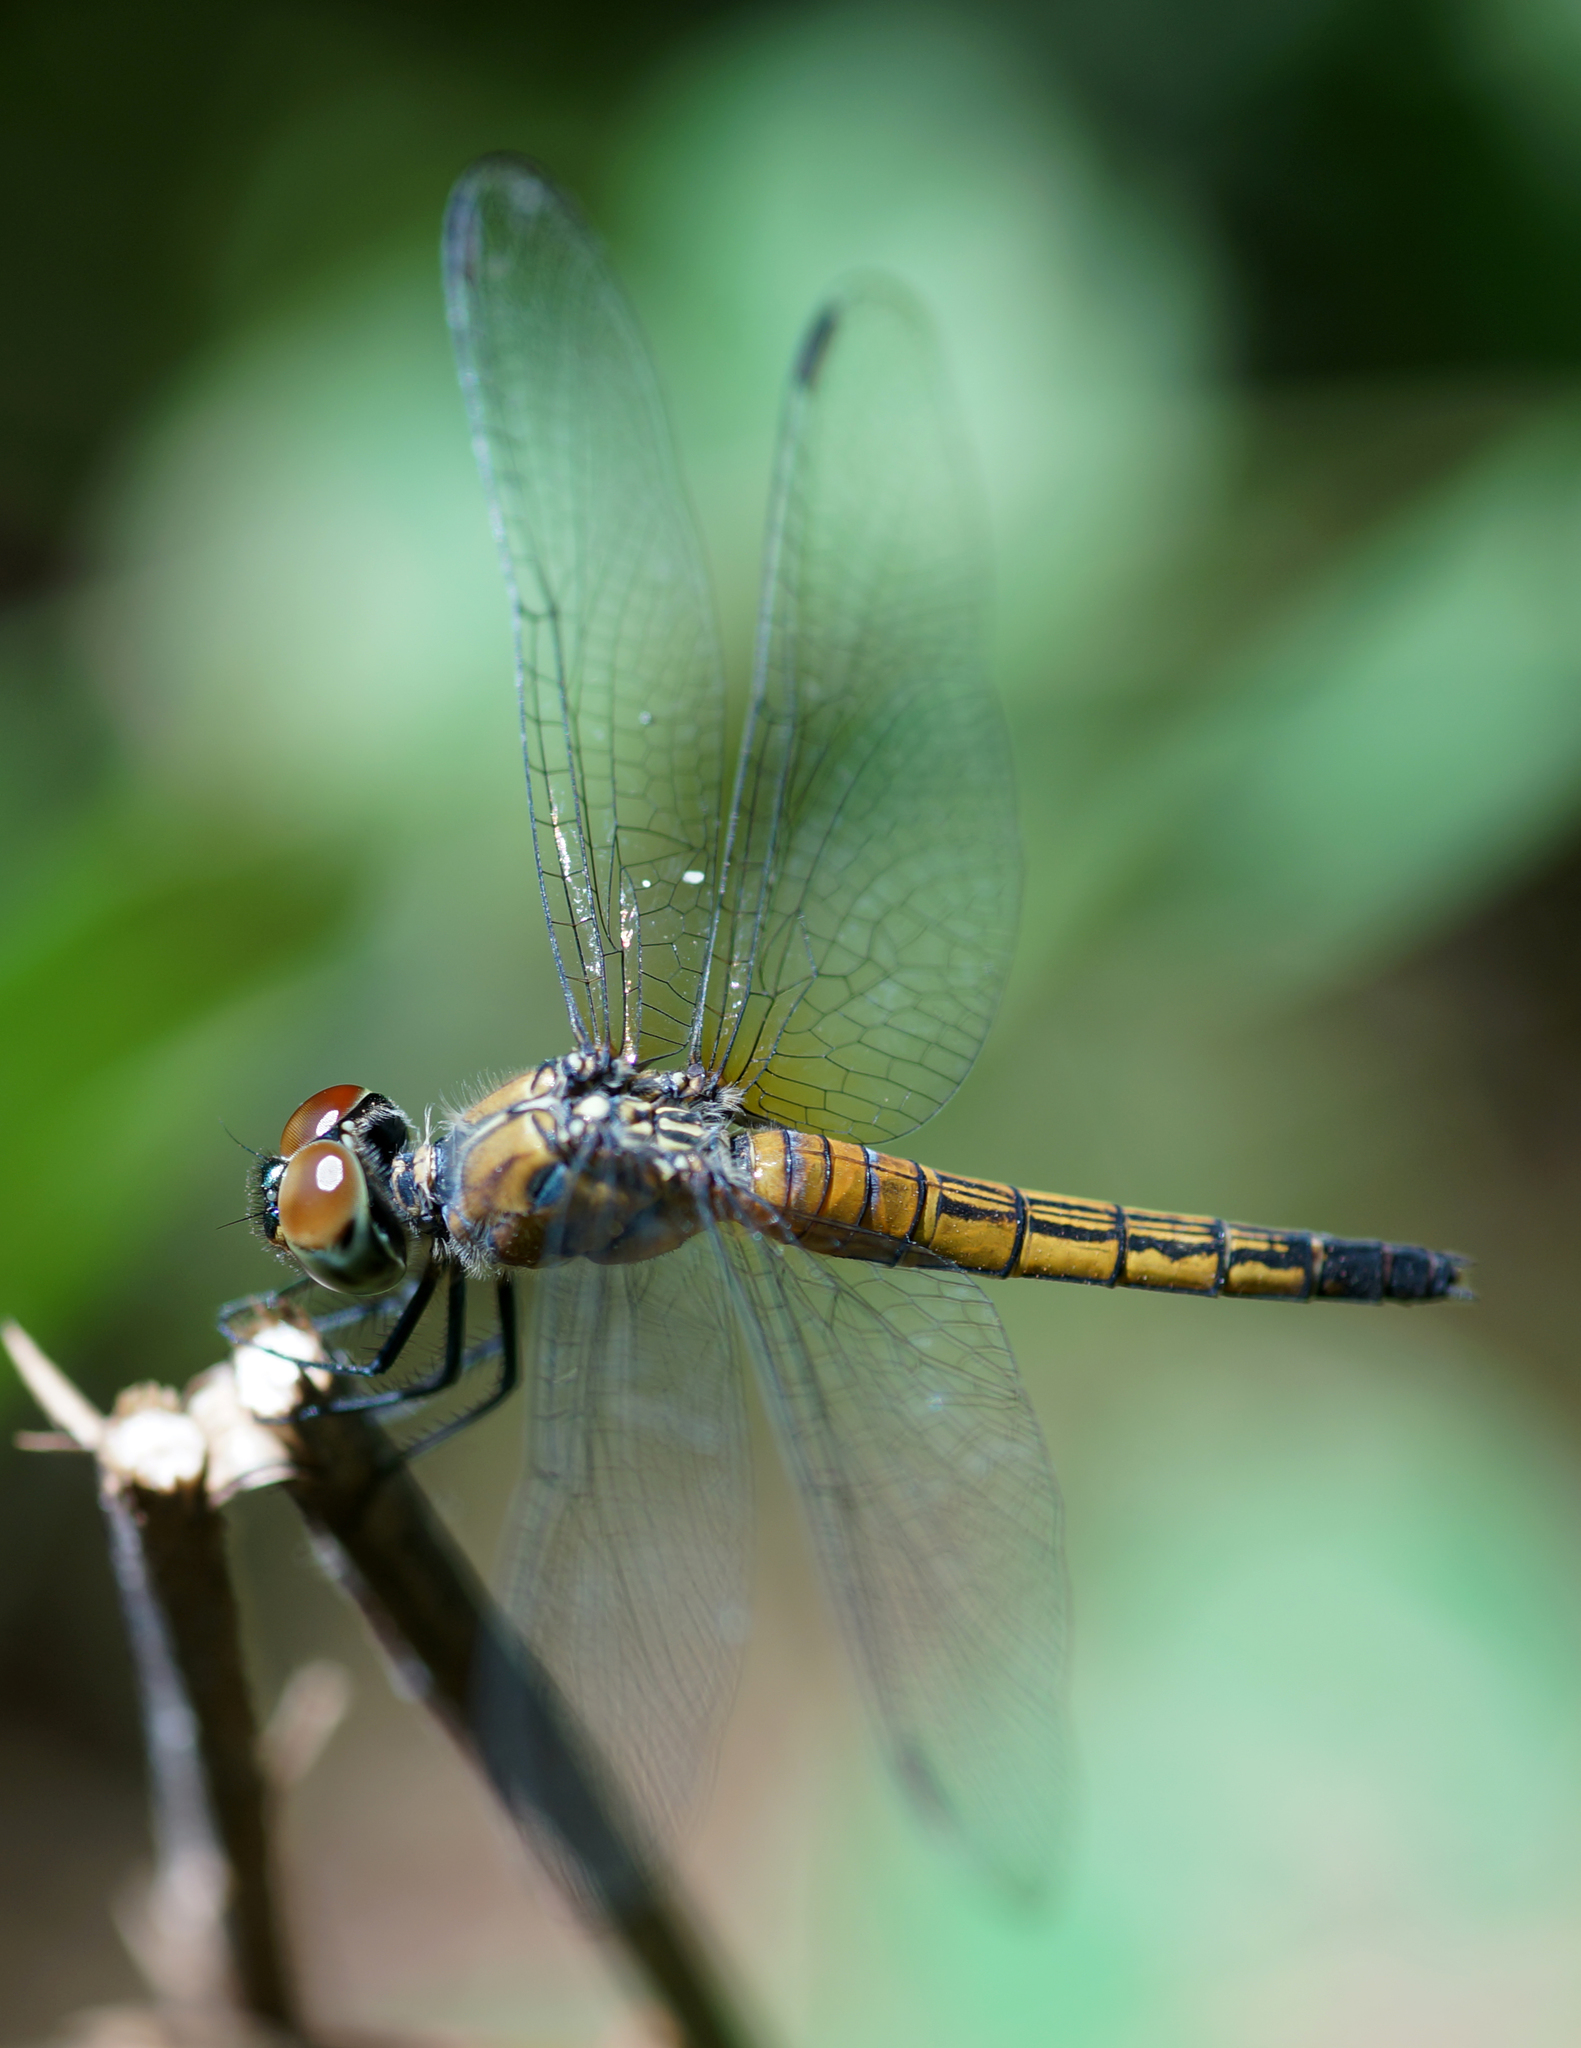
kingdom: Animalia
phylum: Arthropoda
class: Insecta
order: Odonata
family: Libellulidae
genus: Brachydiplax
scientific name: Brachydiplax chalybea
